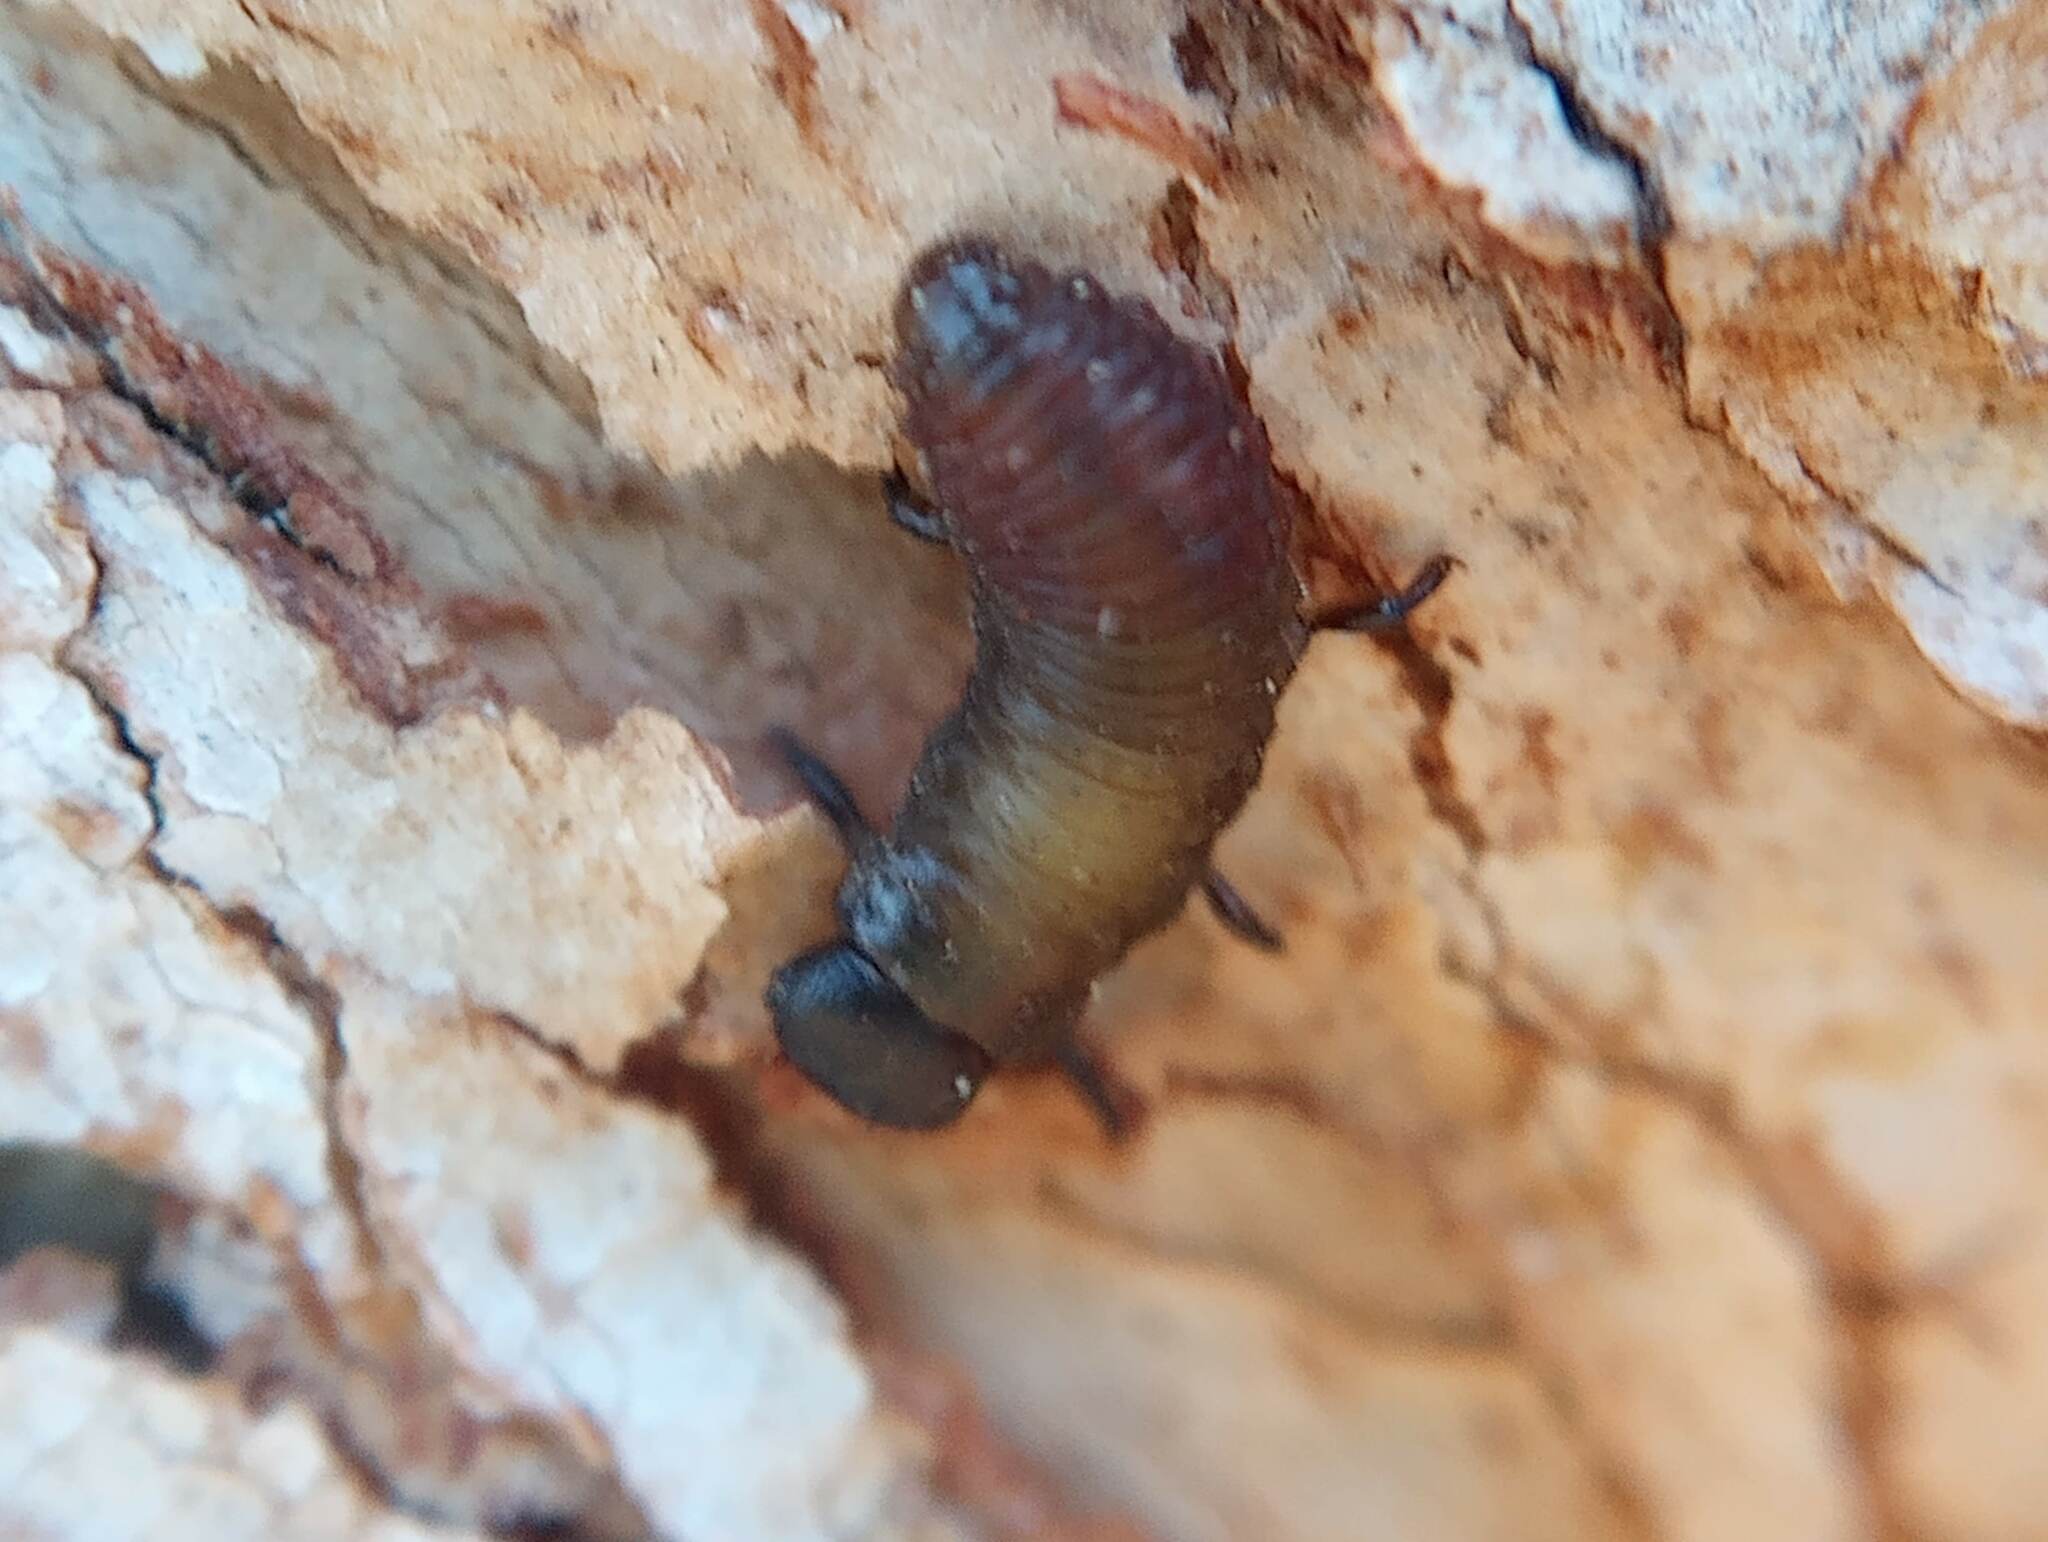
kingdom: Animalia
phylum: Arthropoda
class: Insecta
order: Coleoptera
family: Chrysomelidae
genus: Trachymela
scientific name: Trachymela sloanei
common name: Australian tortoise beetle
